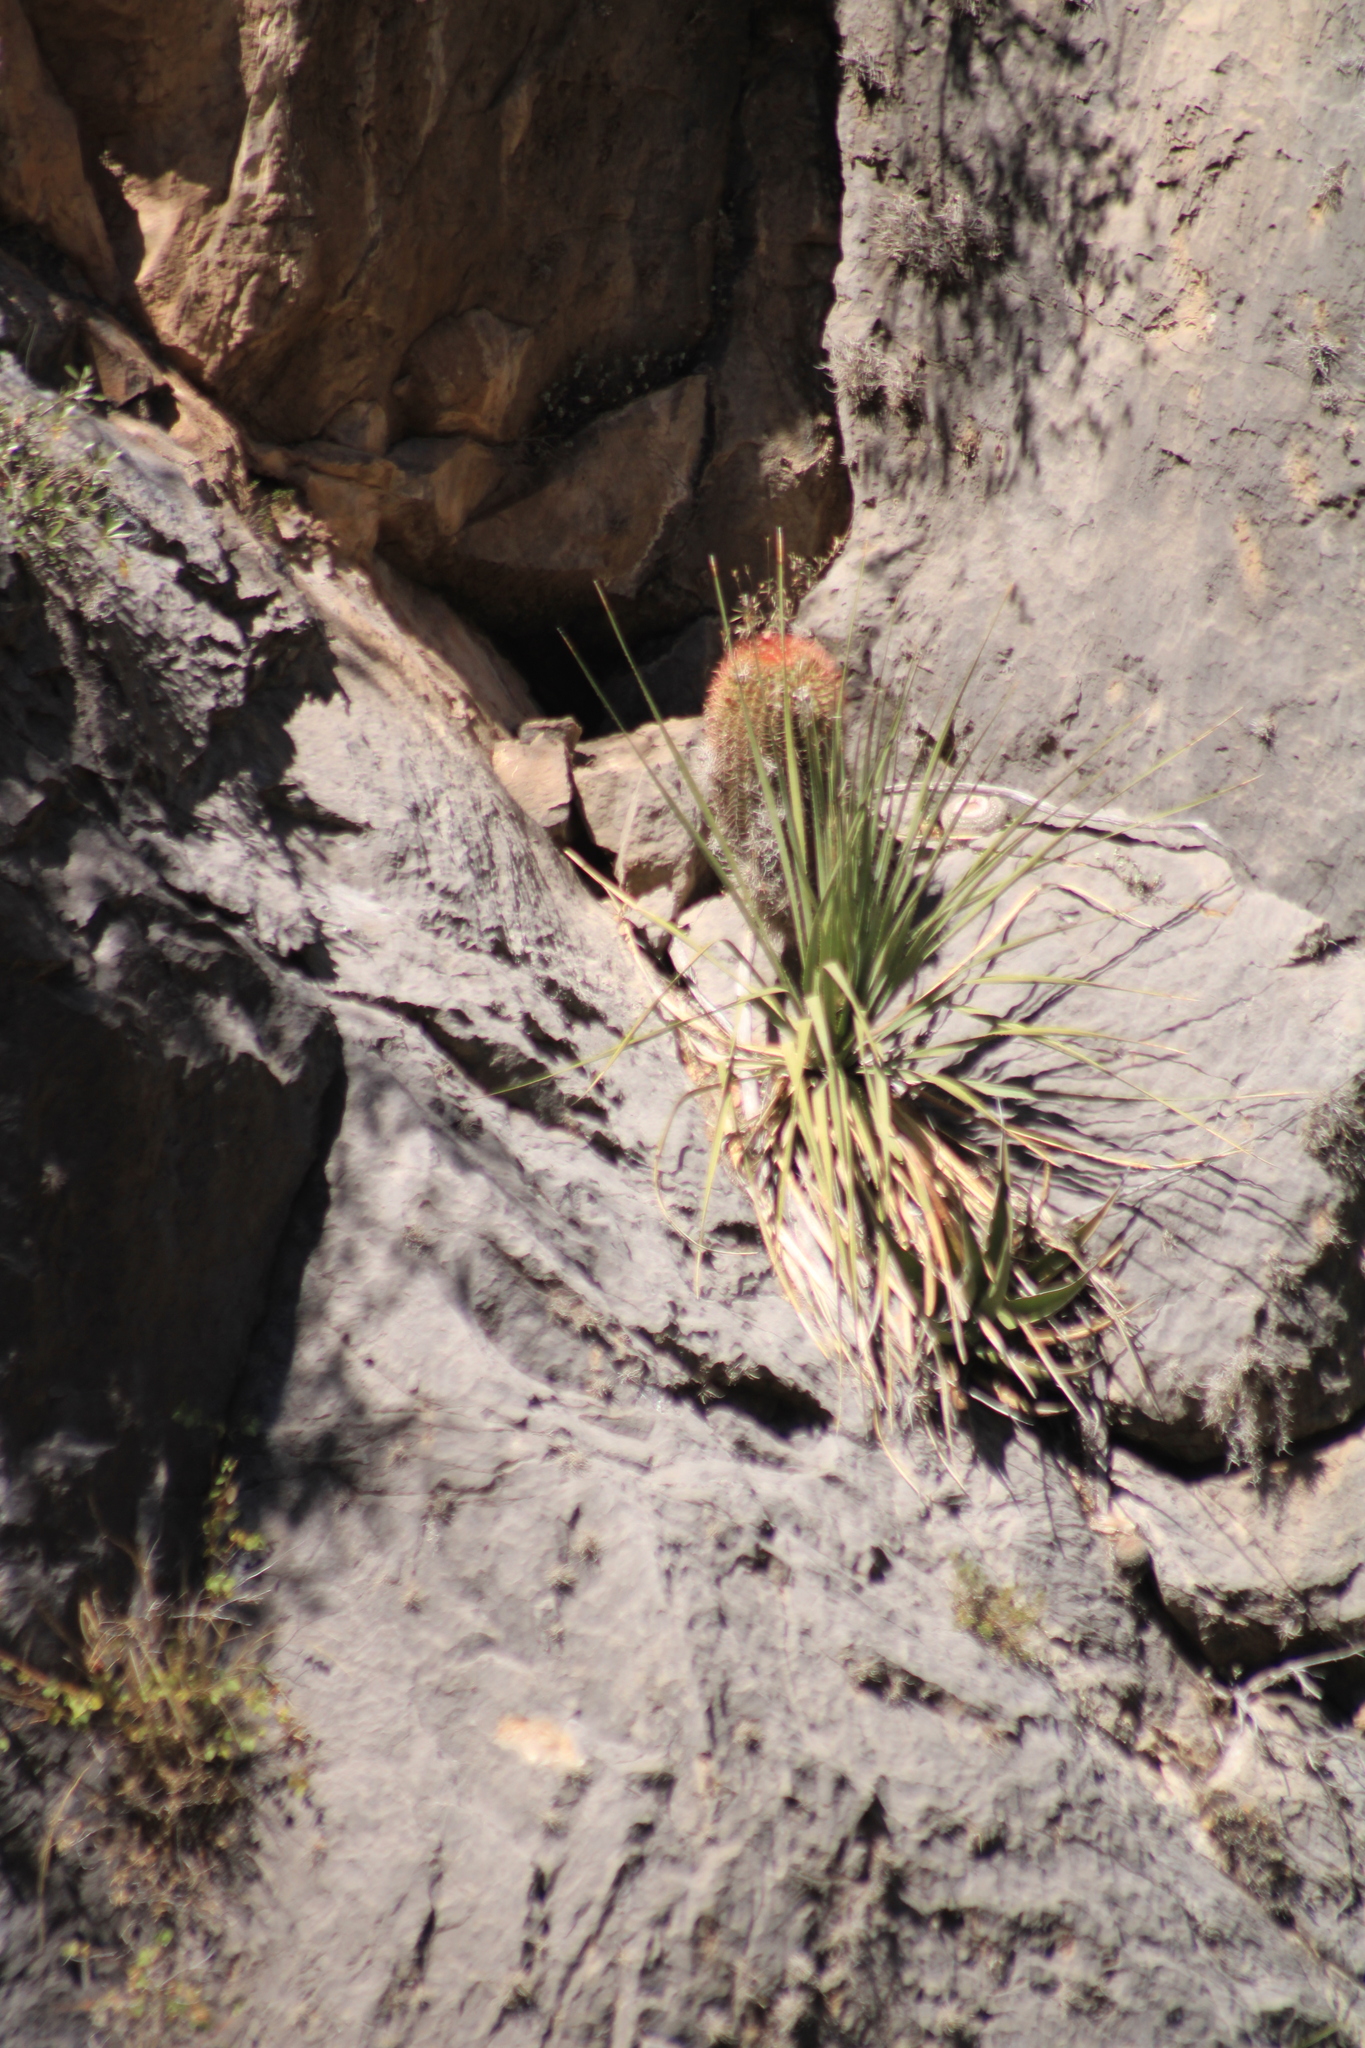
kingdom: Plantae
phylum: Tracheophyta
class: Magnoliopsida
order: Caryophyllales
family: Cactaceae
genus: Ferocactus
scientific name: Ferocactus pilosus
